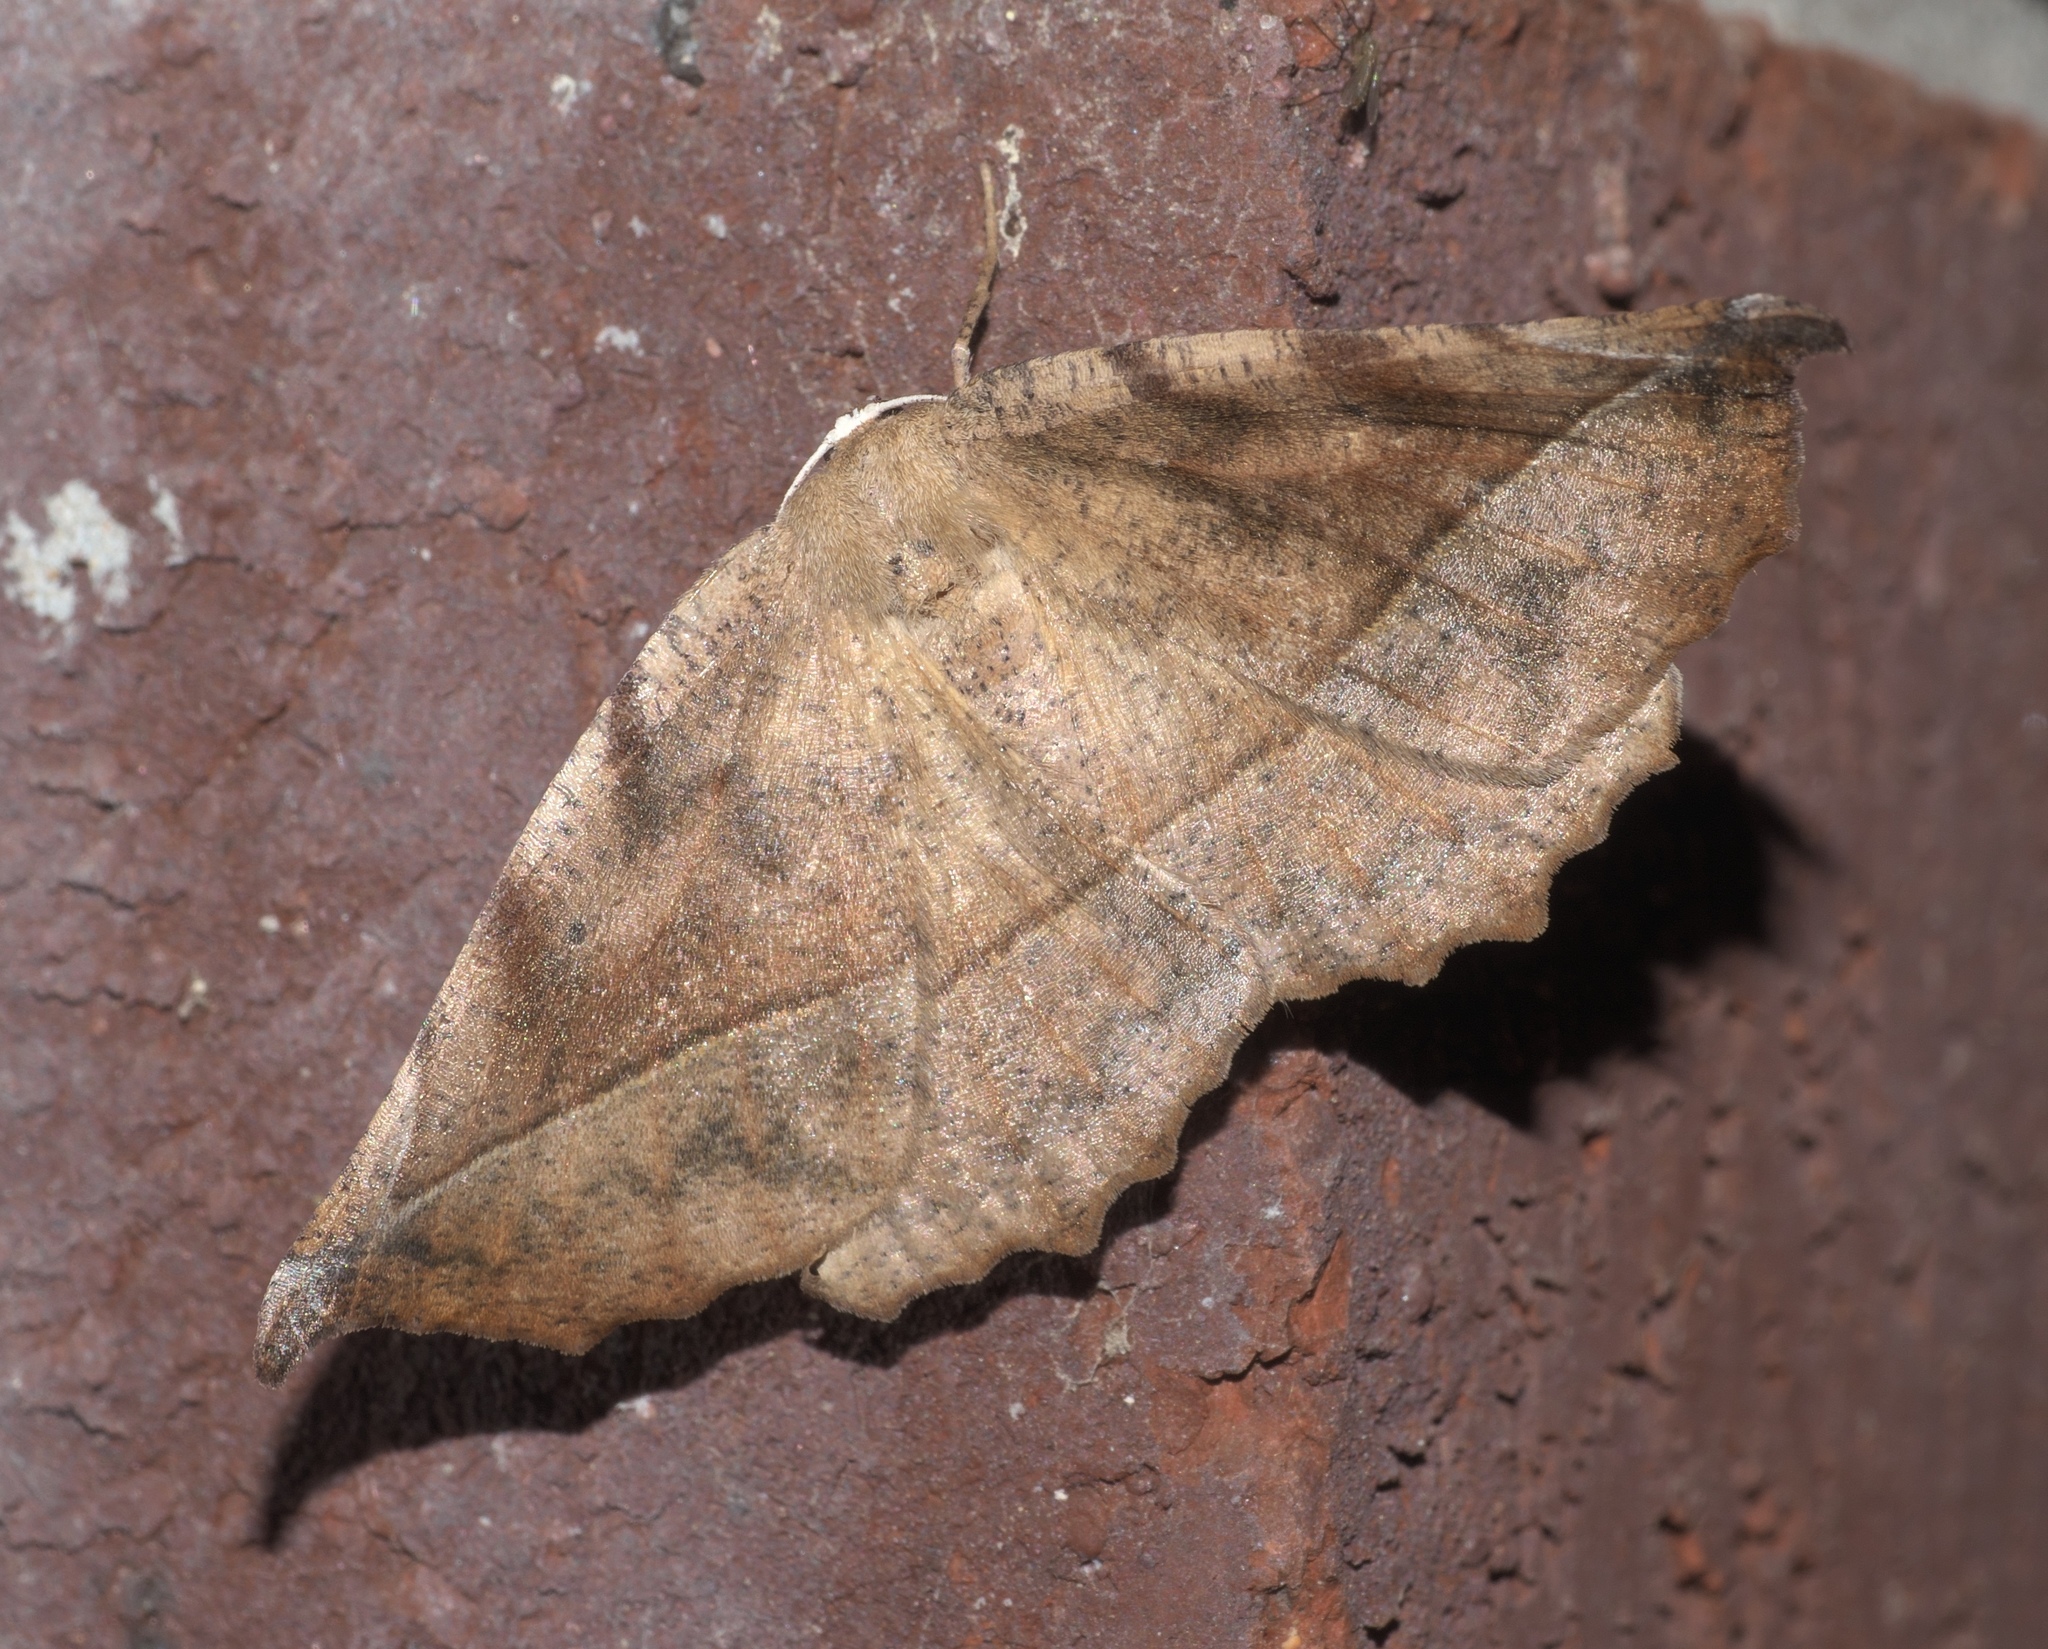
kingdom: Animalia
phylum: Arthropoda
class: Insecta
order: Lepidoptera
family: Geometridae
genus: Eutrapela
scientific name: Eutrapela clemataria
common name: Curved-toothed geometer
